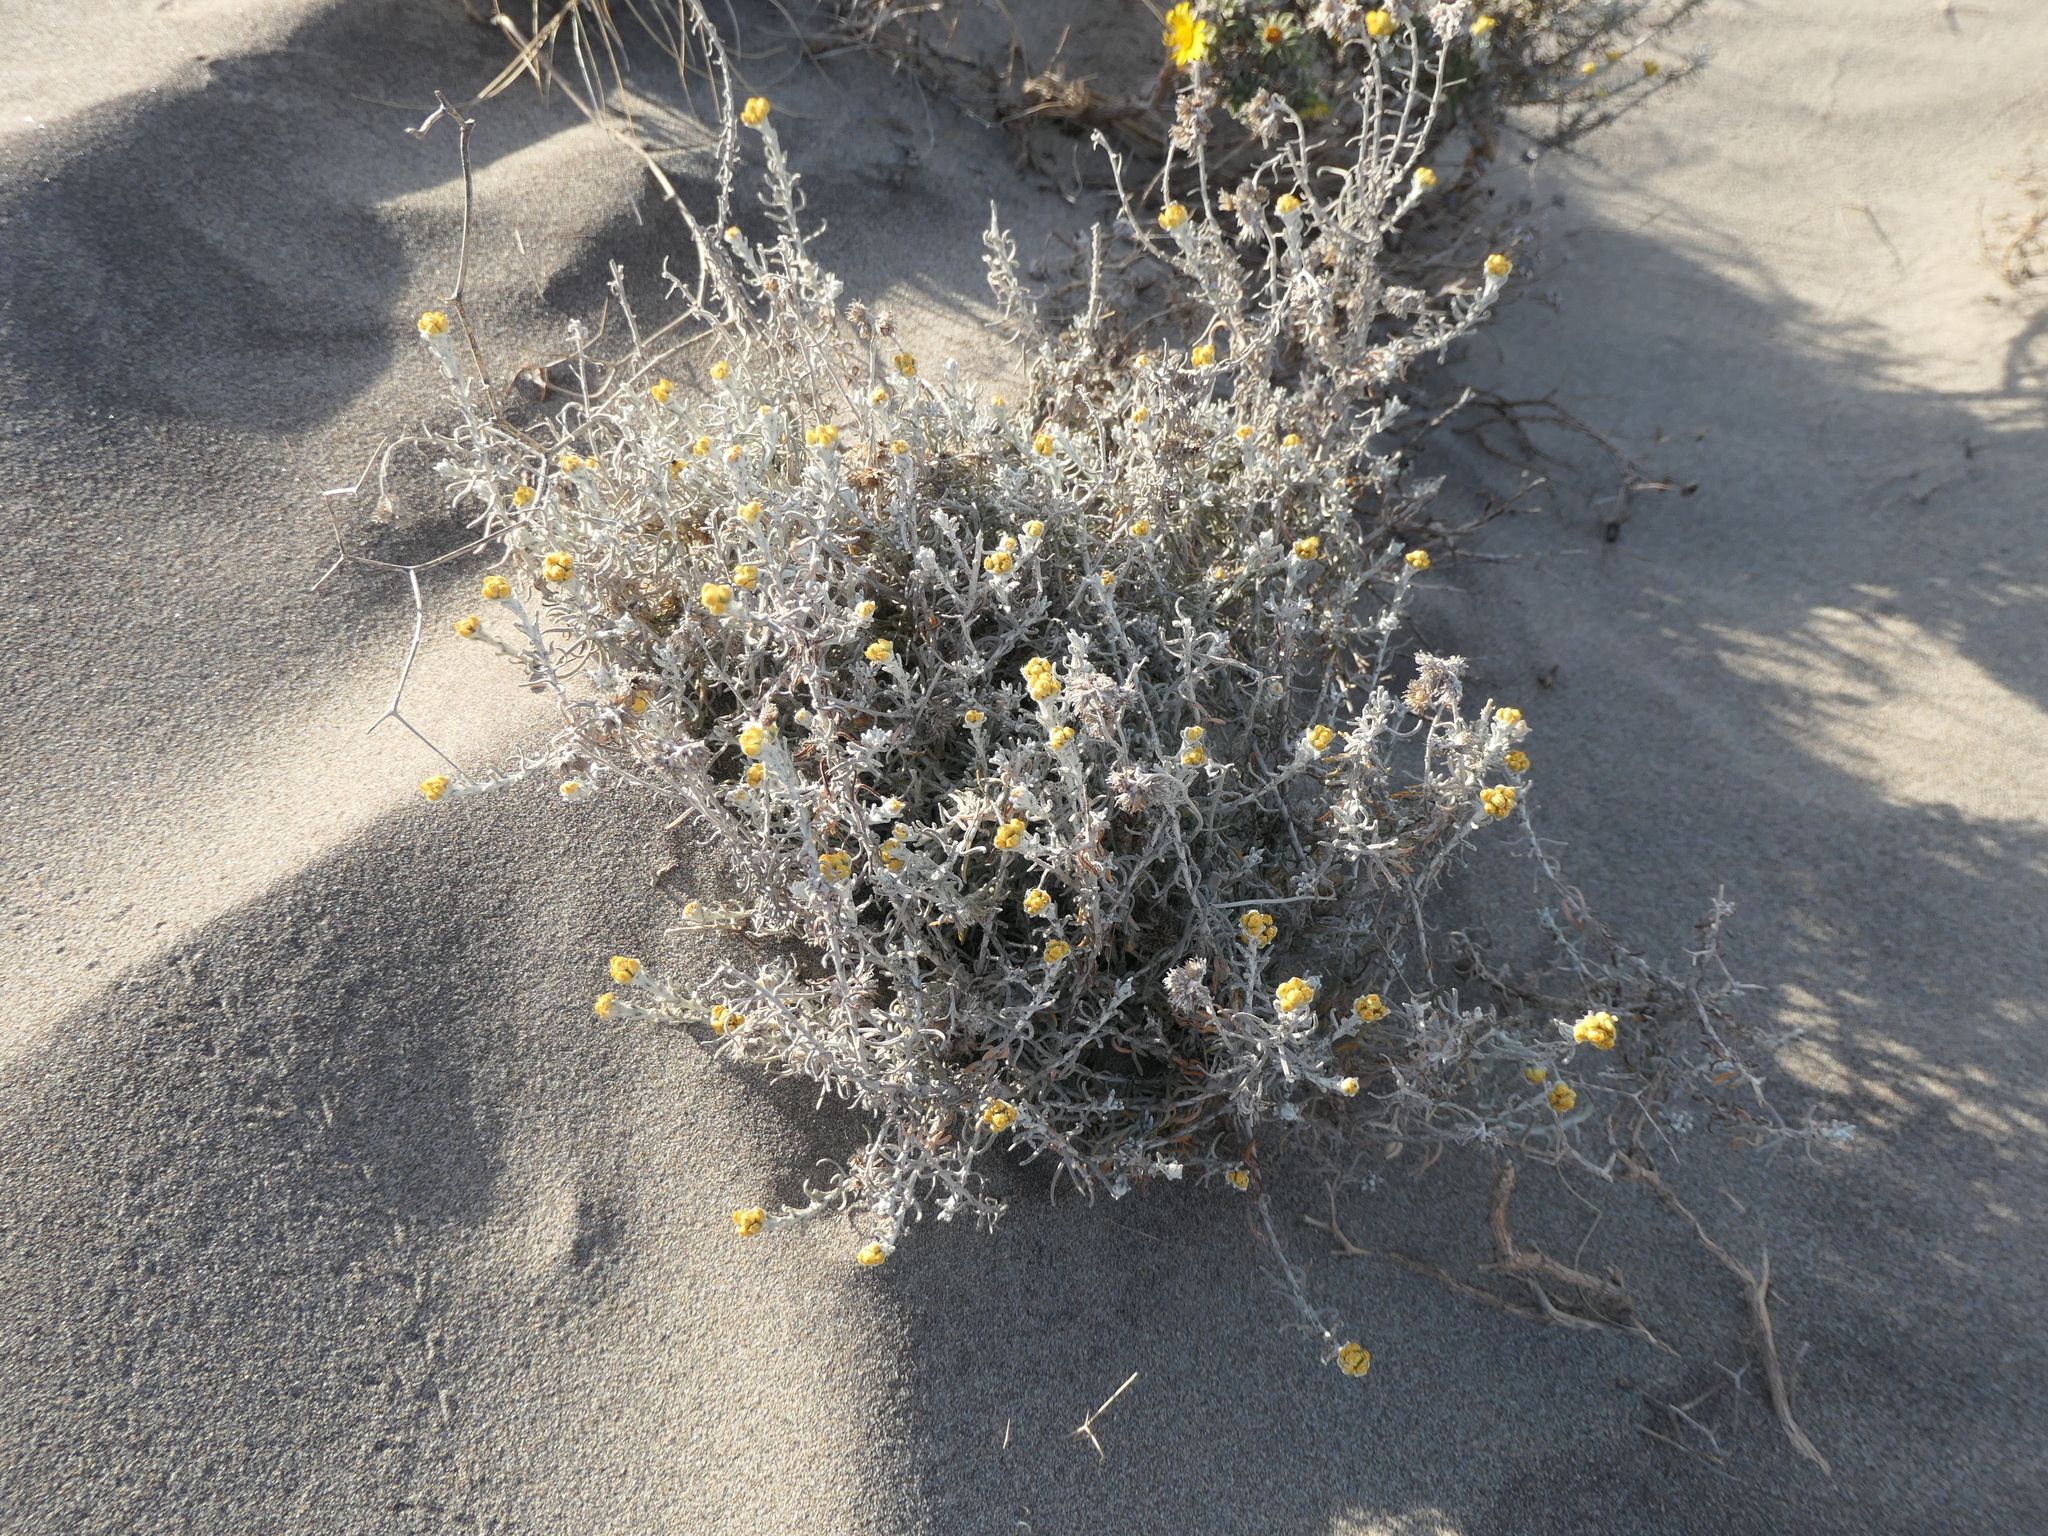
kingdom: Plantae
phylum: Tracheophyta
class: Magnoliopsida
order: Asterales
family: Asteraceae
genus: Helichrysum
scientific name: Helichrysum stoechas
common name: Goldilocks
